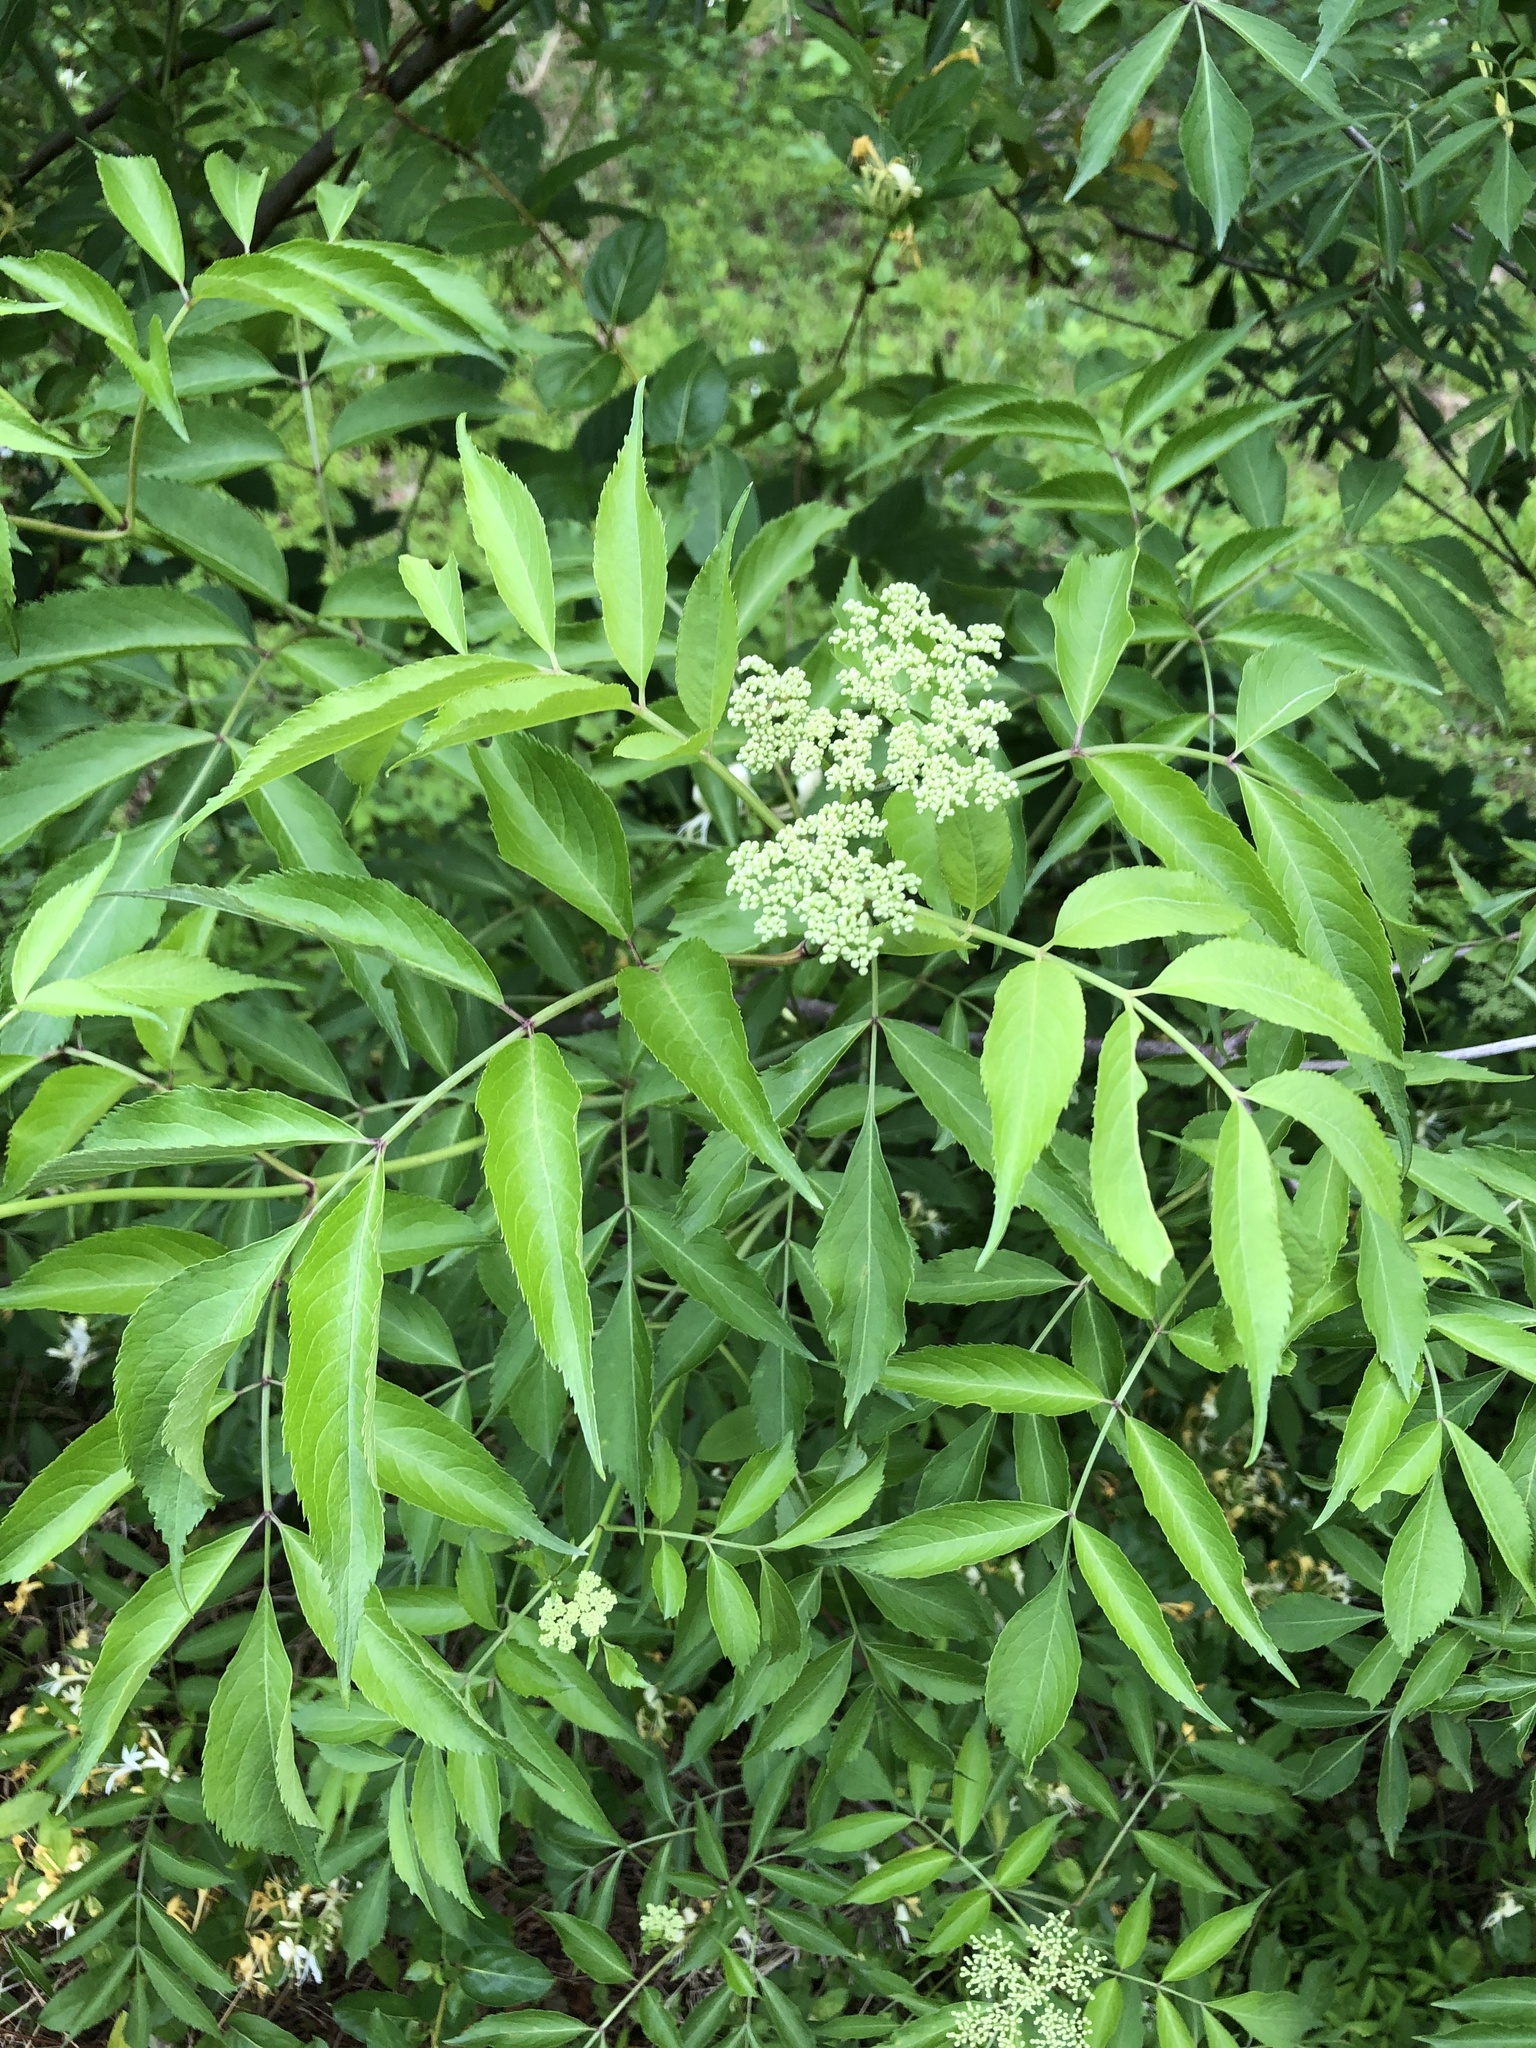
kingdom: Plantae
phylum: Tracheophyta
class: Magnoliopsida
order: Dipsacales
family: Viburnaceae
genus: Sambucus
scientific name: Sambucus canadensis
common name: American elder
